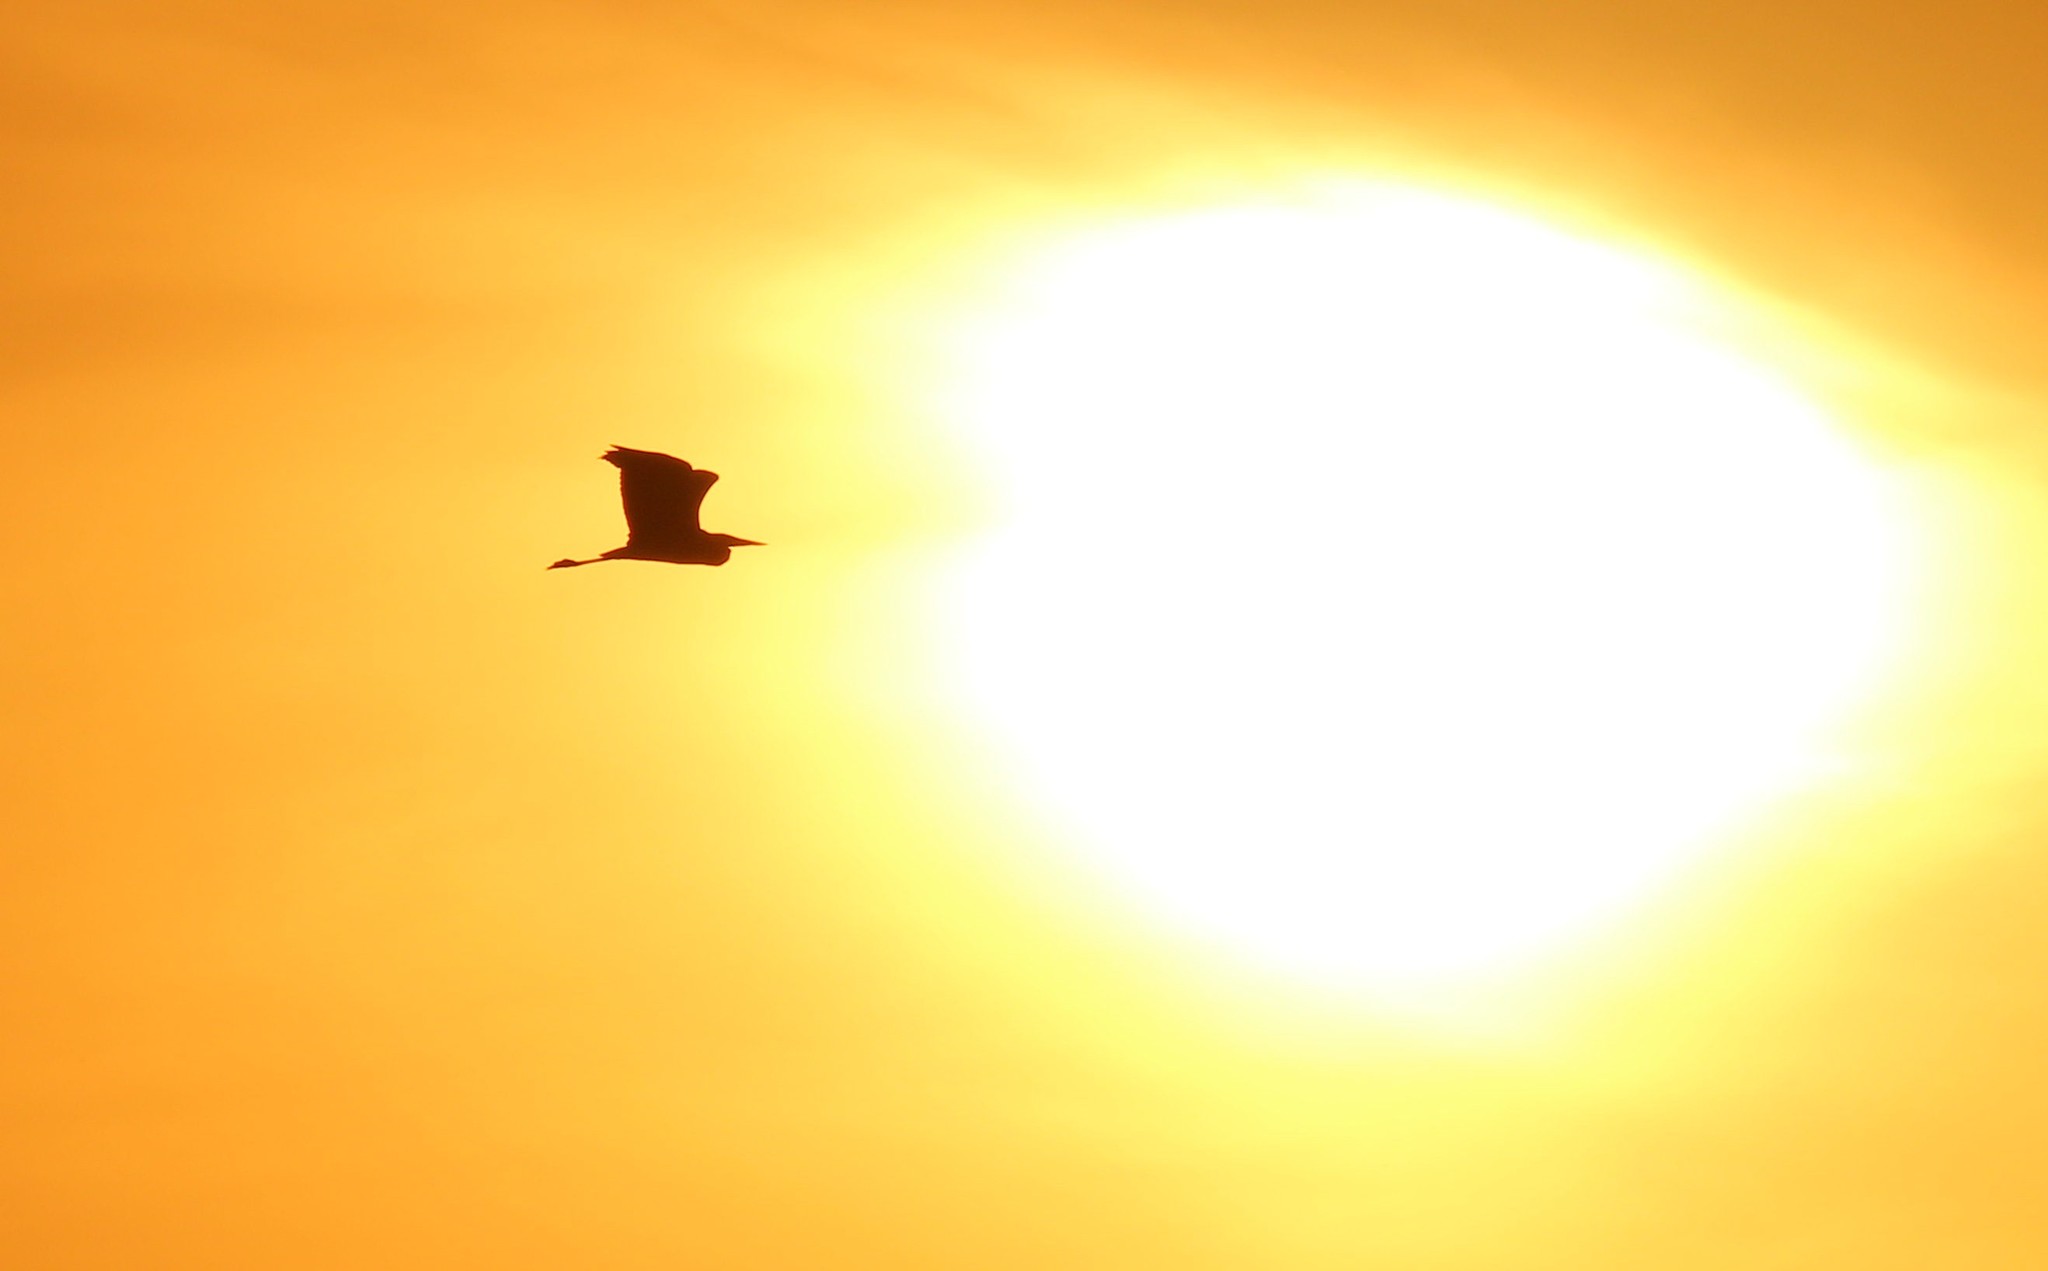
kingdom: Animalia
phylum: Chordata
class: Aves
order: Pelecaniformes
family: Ardeidae
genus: Ardea
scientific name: Ardea cinerea
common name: Grey heron
